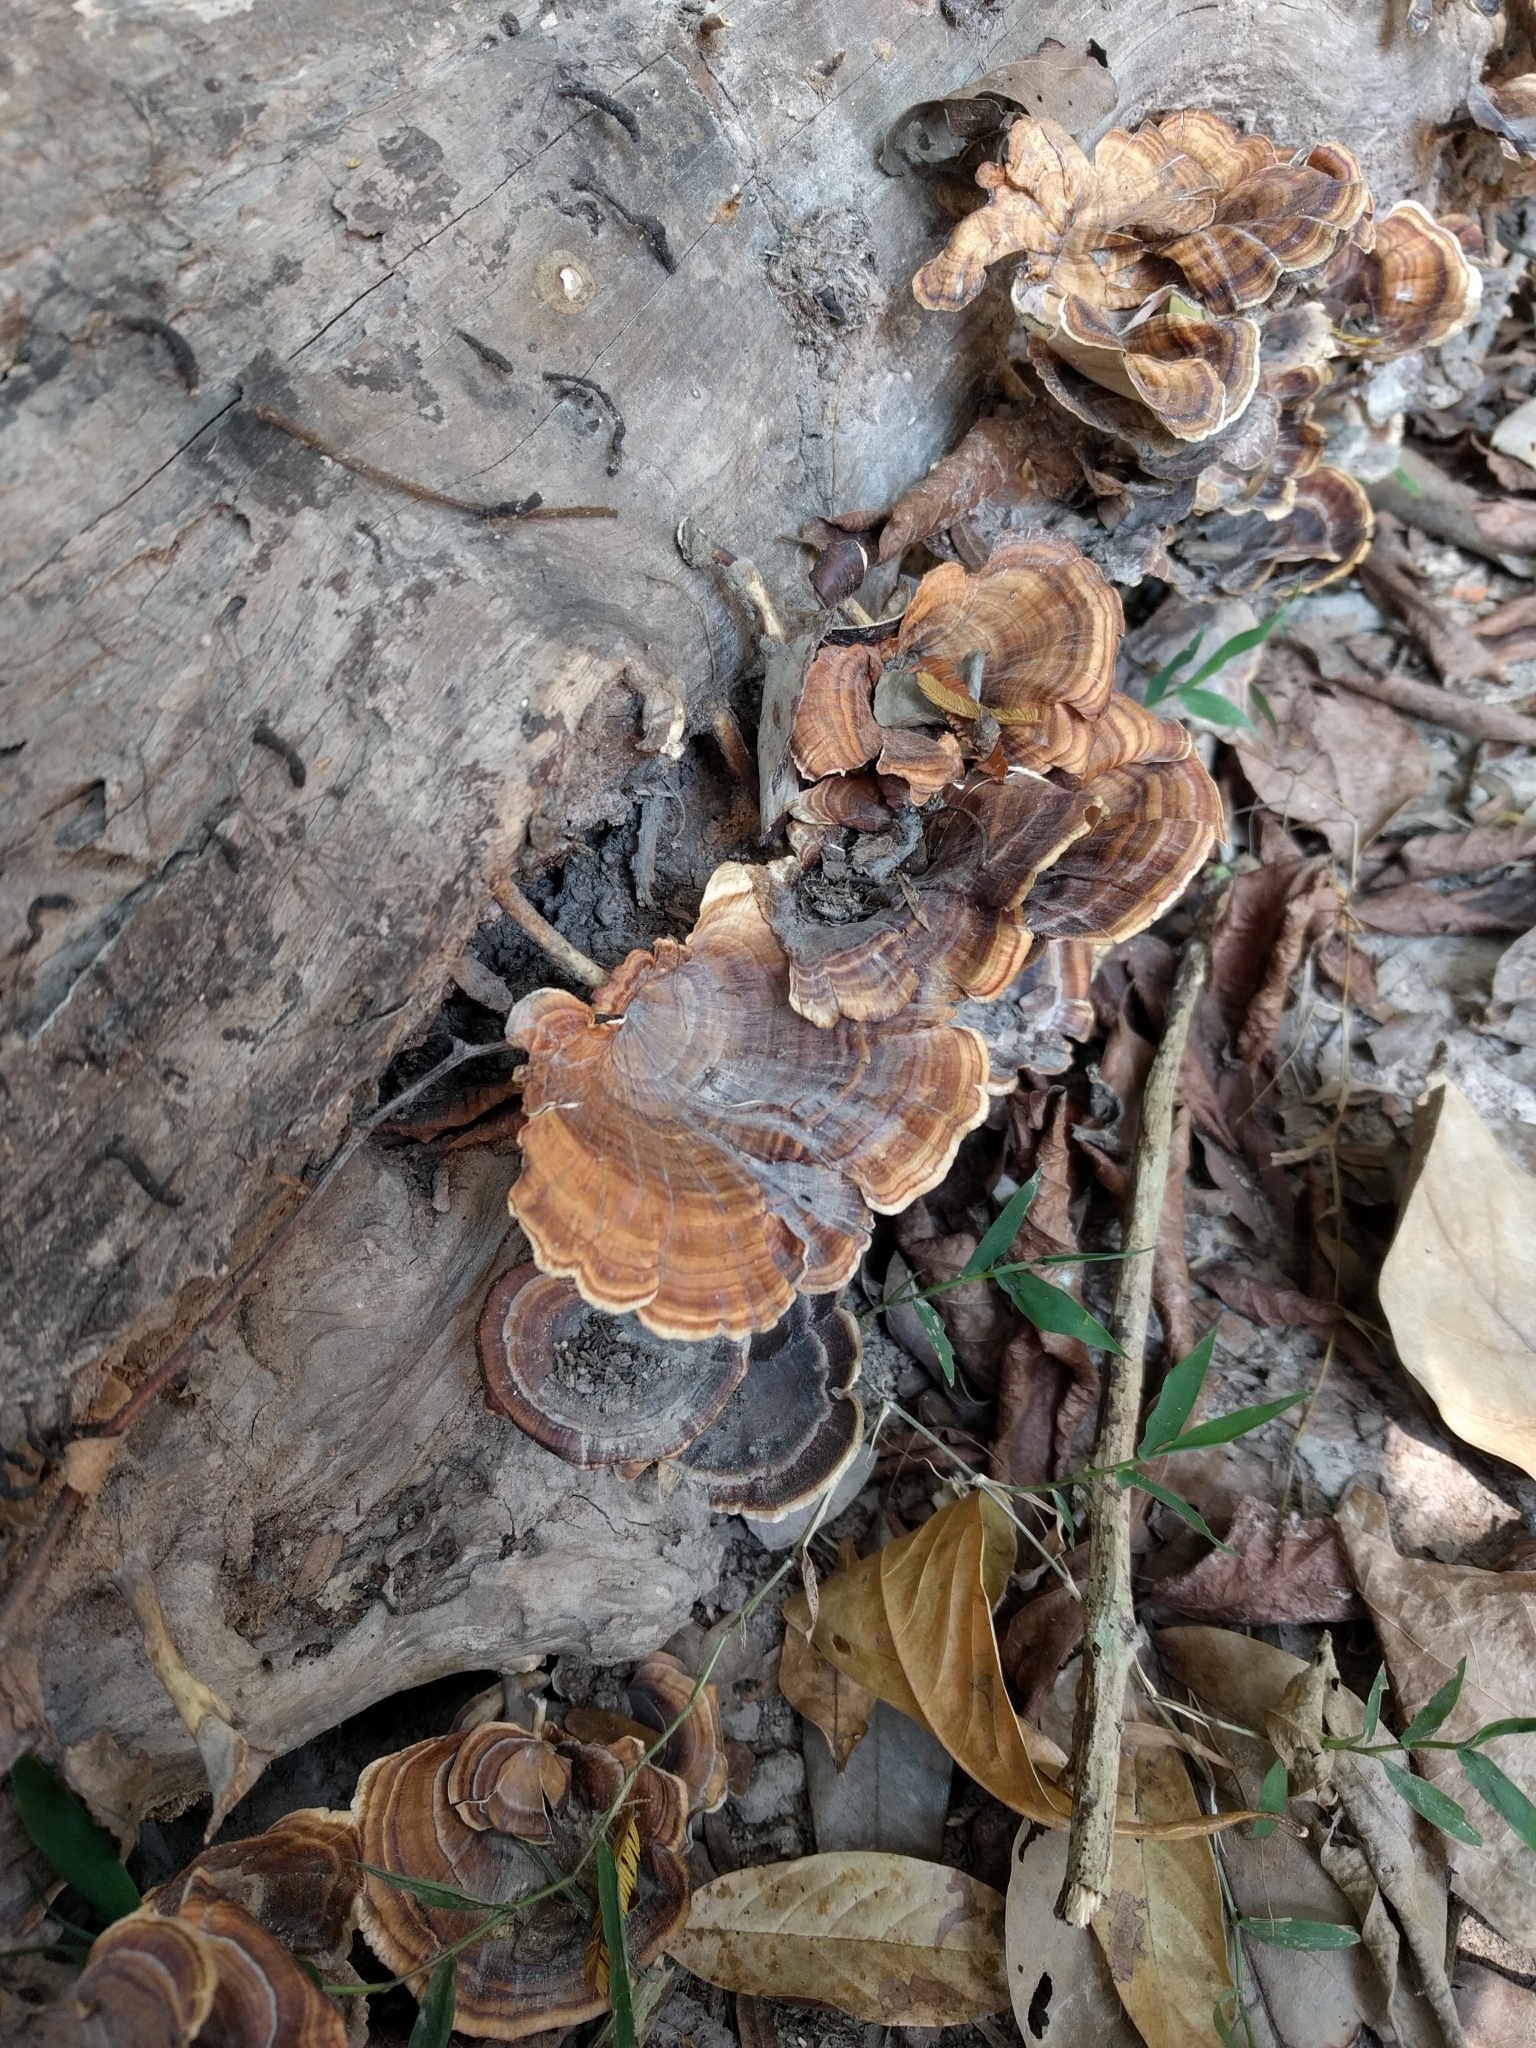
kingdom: Fungi
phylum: Basidiomycota
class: Agaricomycetes
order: Polyporales
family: Polyporaceae
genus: Microporus
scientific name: Microporus xanthopus
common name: Yellow-stemmed micropore
